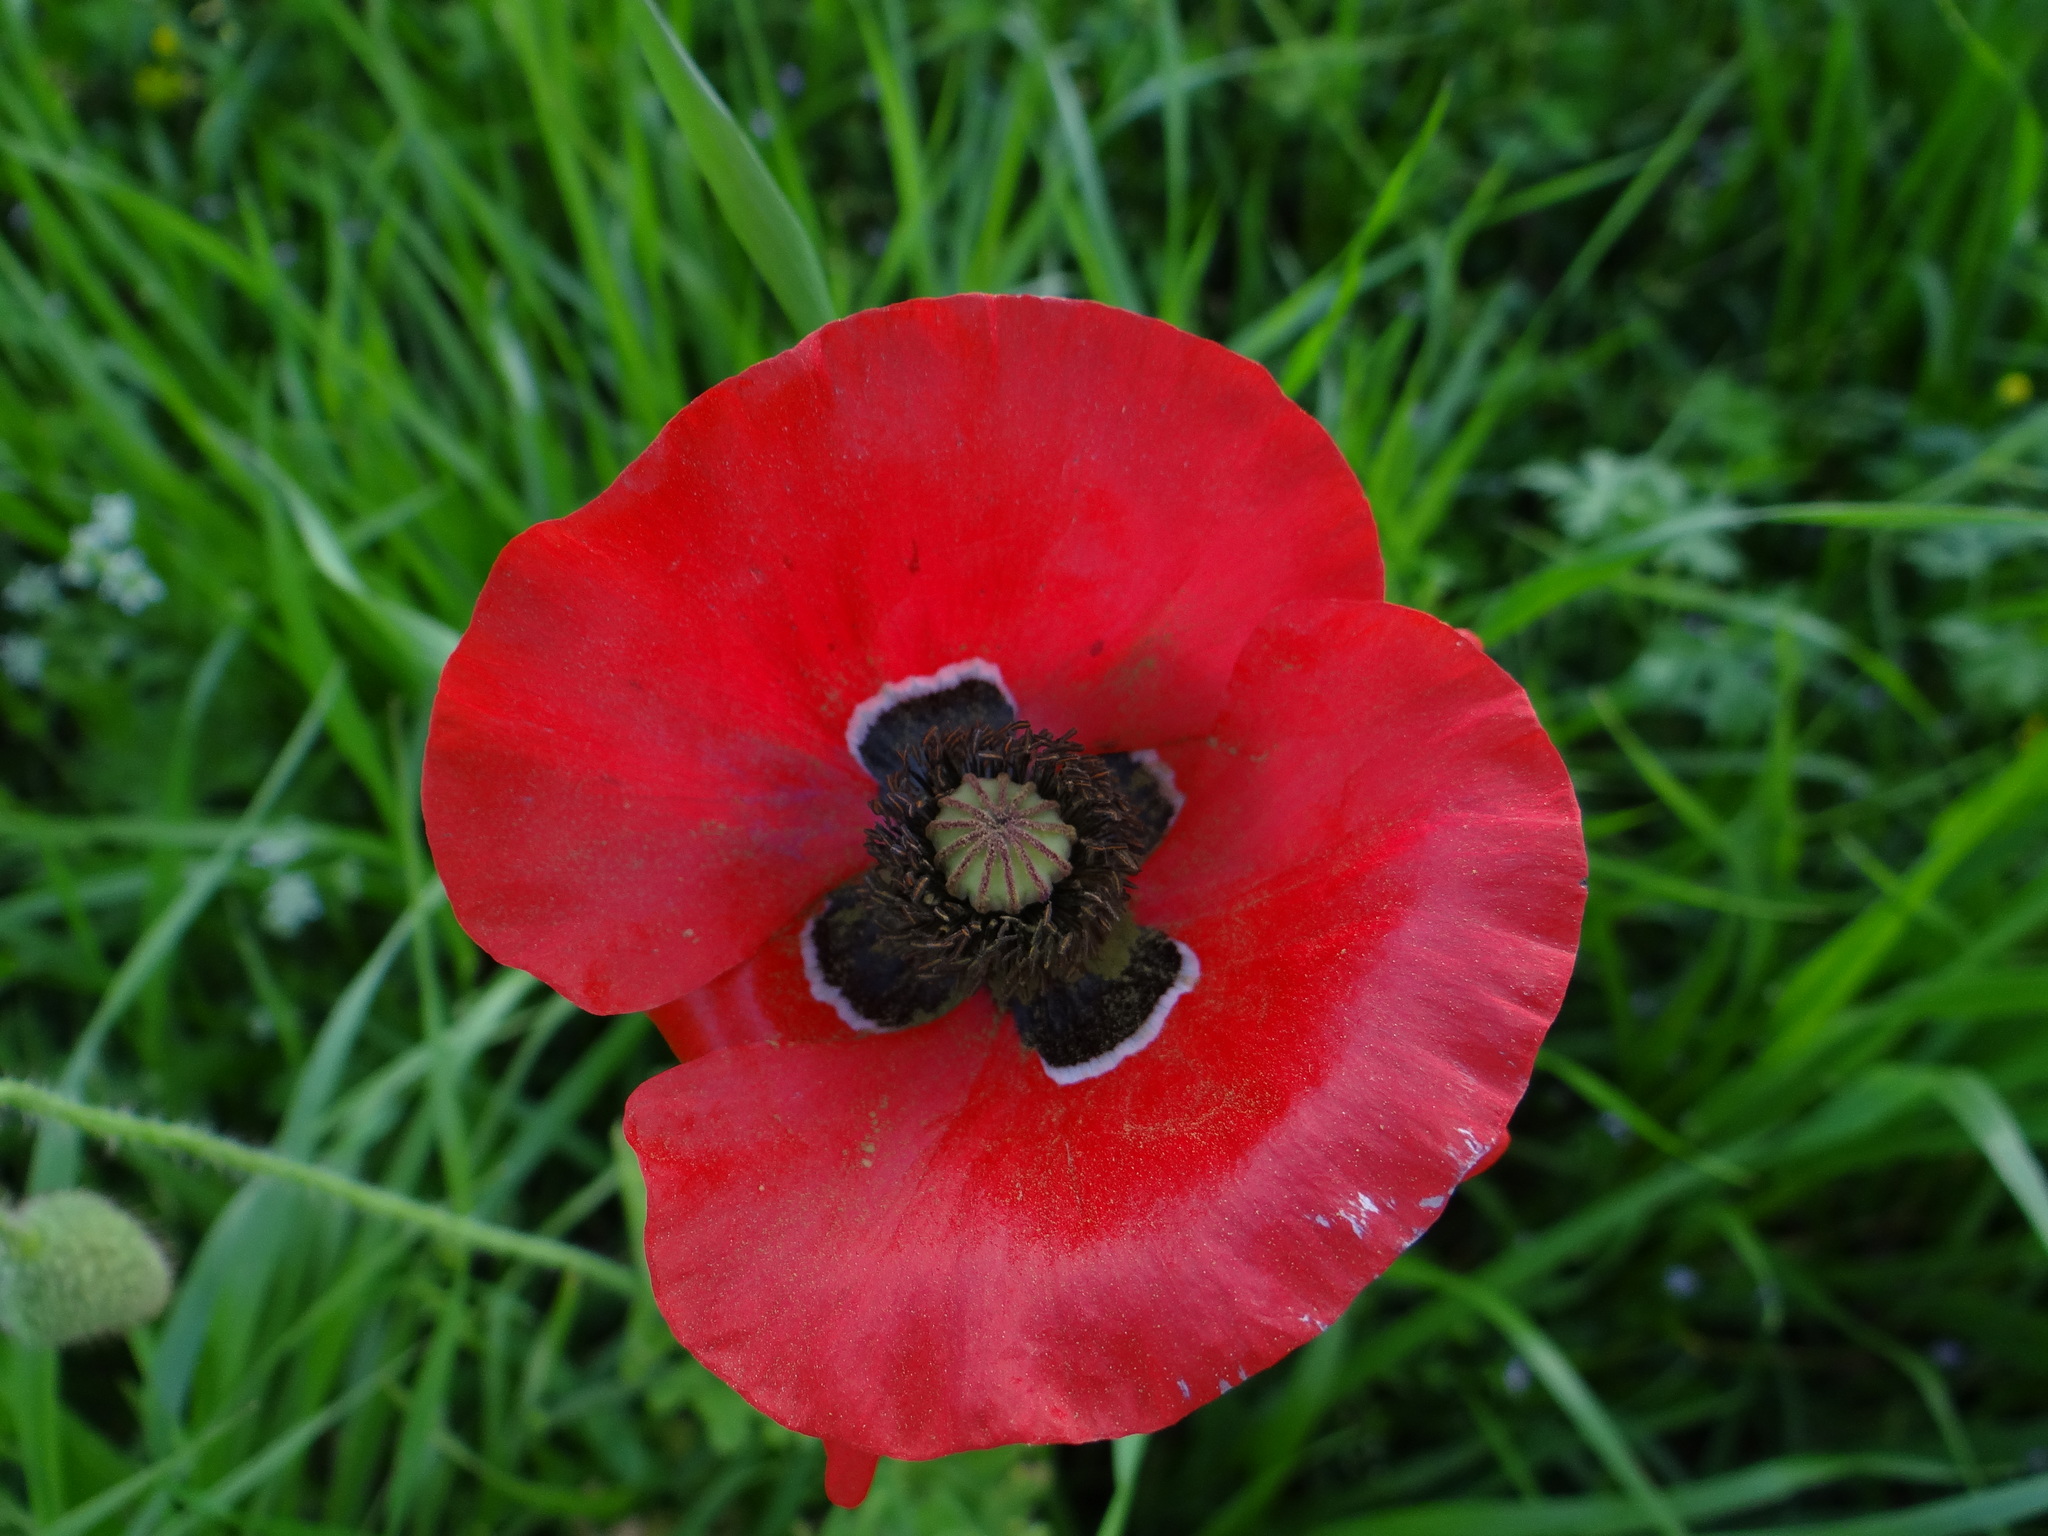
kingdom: Plantae
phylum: Tracheophyta
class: Magnoliopsida
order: Ranunculales
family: Papaveraceae
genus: Papaver
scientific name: Papaver rhoeas
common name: Corn poppy
